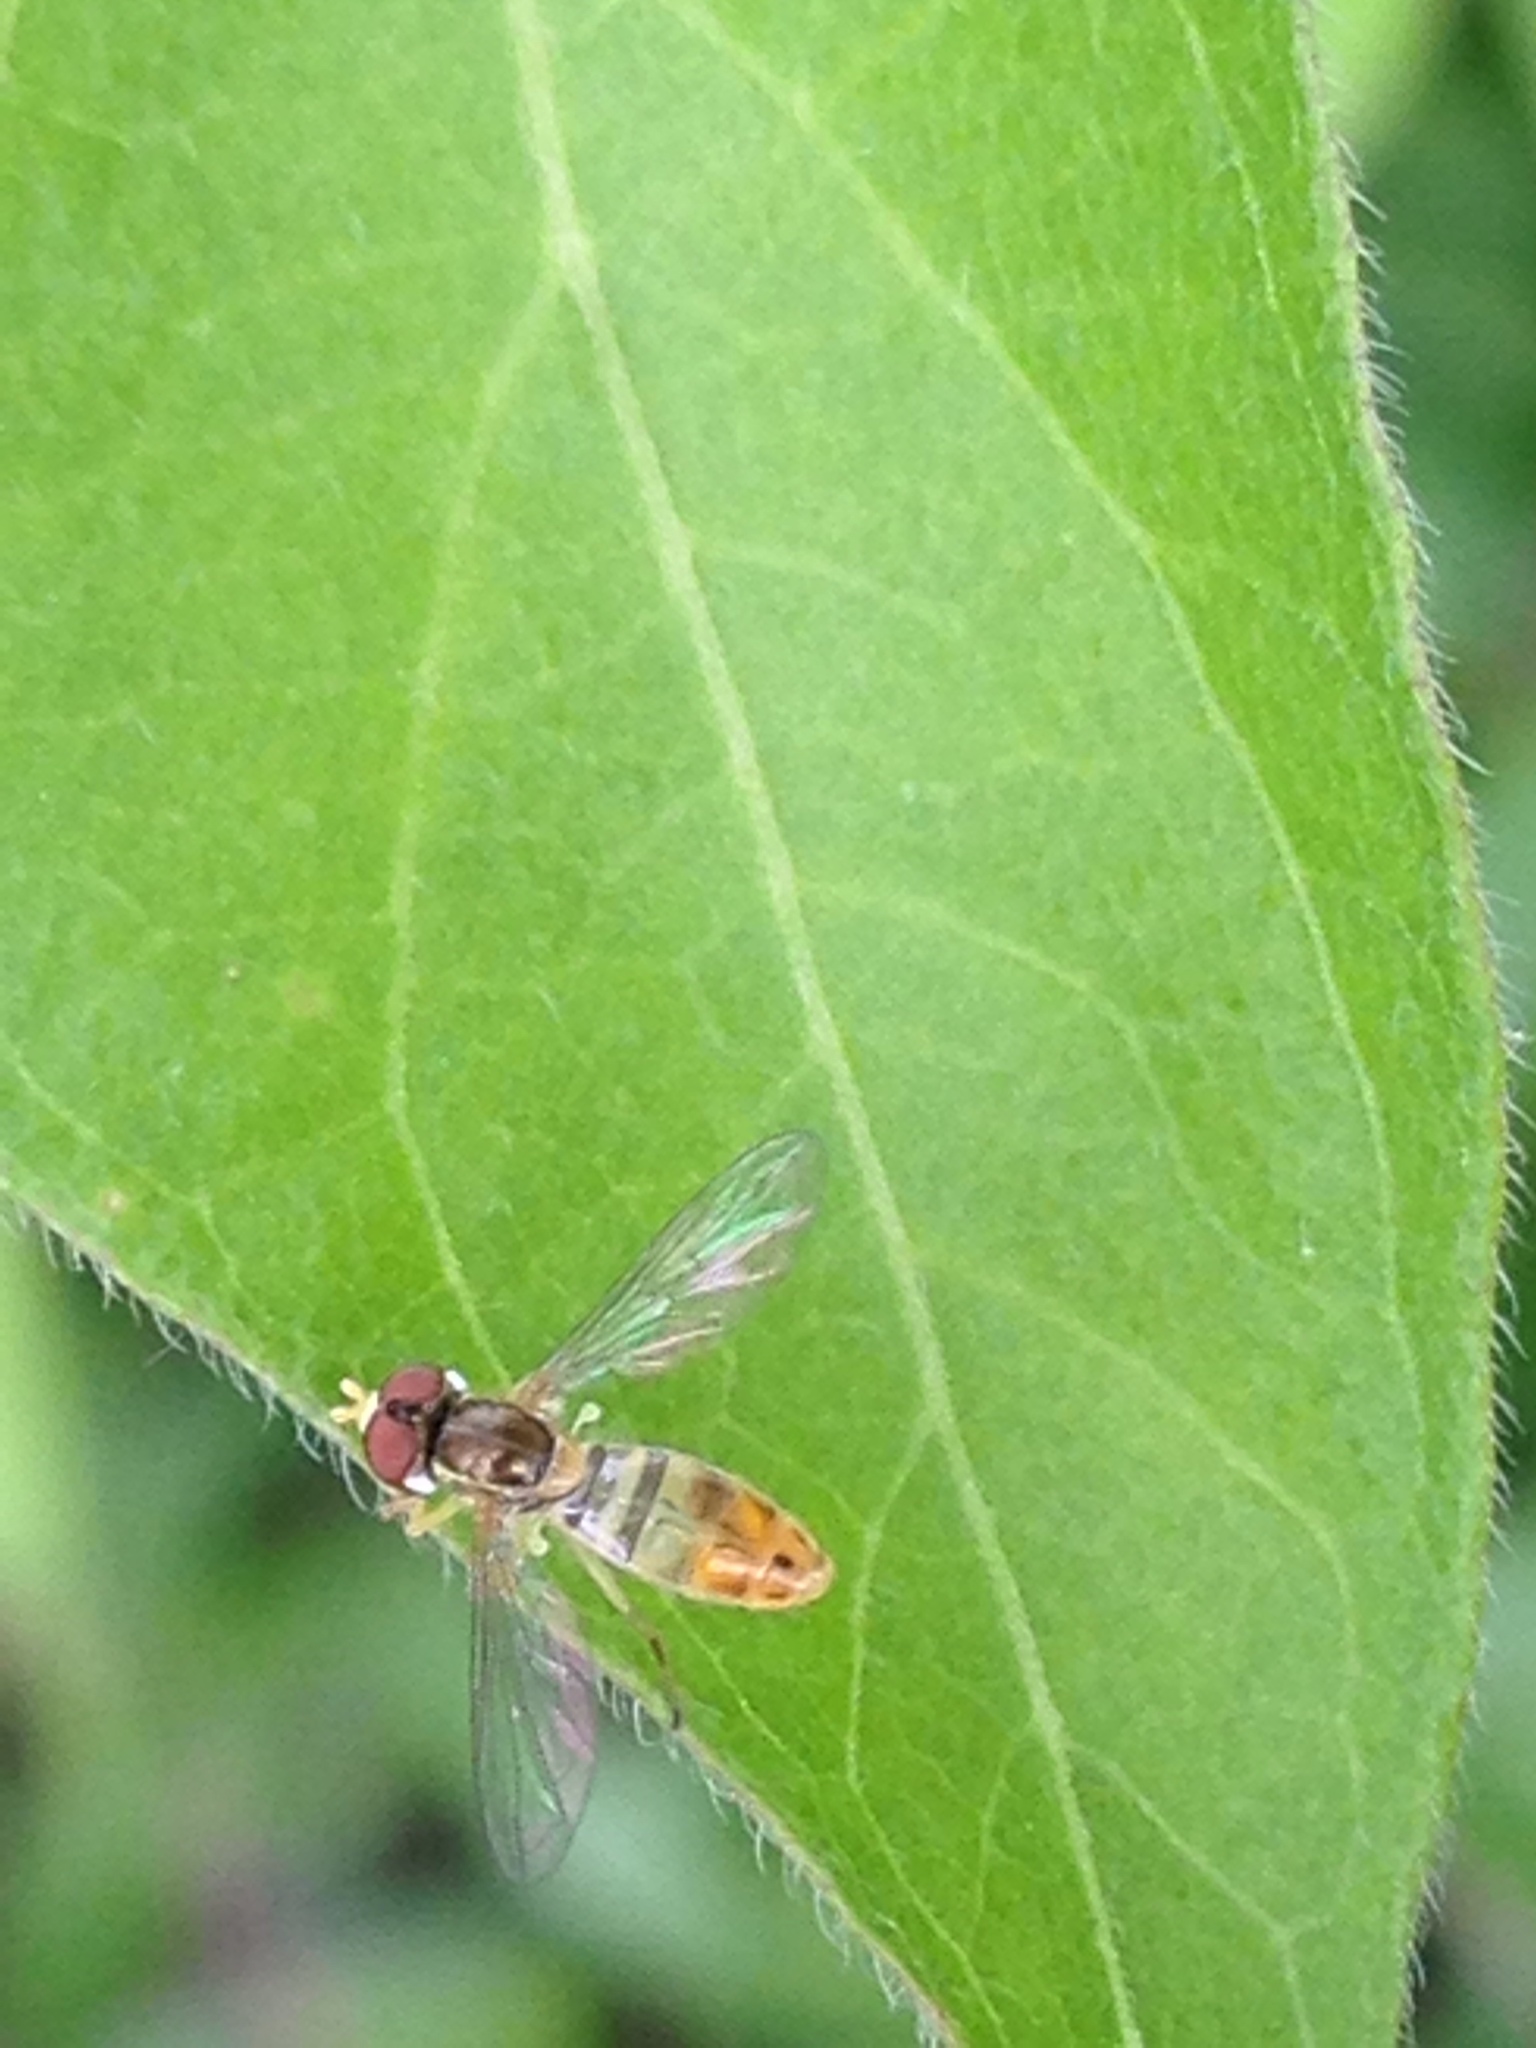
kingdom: Animalia
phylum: Arthropoda
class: Insecta
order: Diptera
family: Syrphidae
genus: Toxomerus
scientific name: Toxomerus marginatus
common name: Syrphid fly
